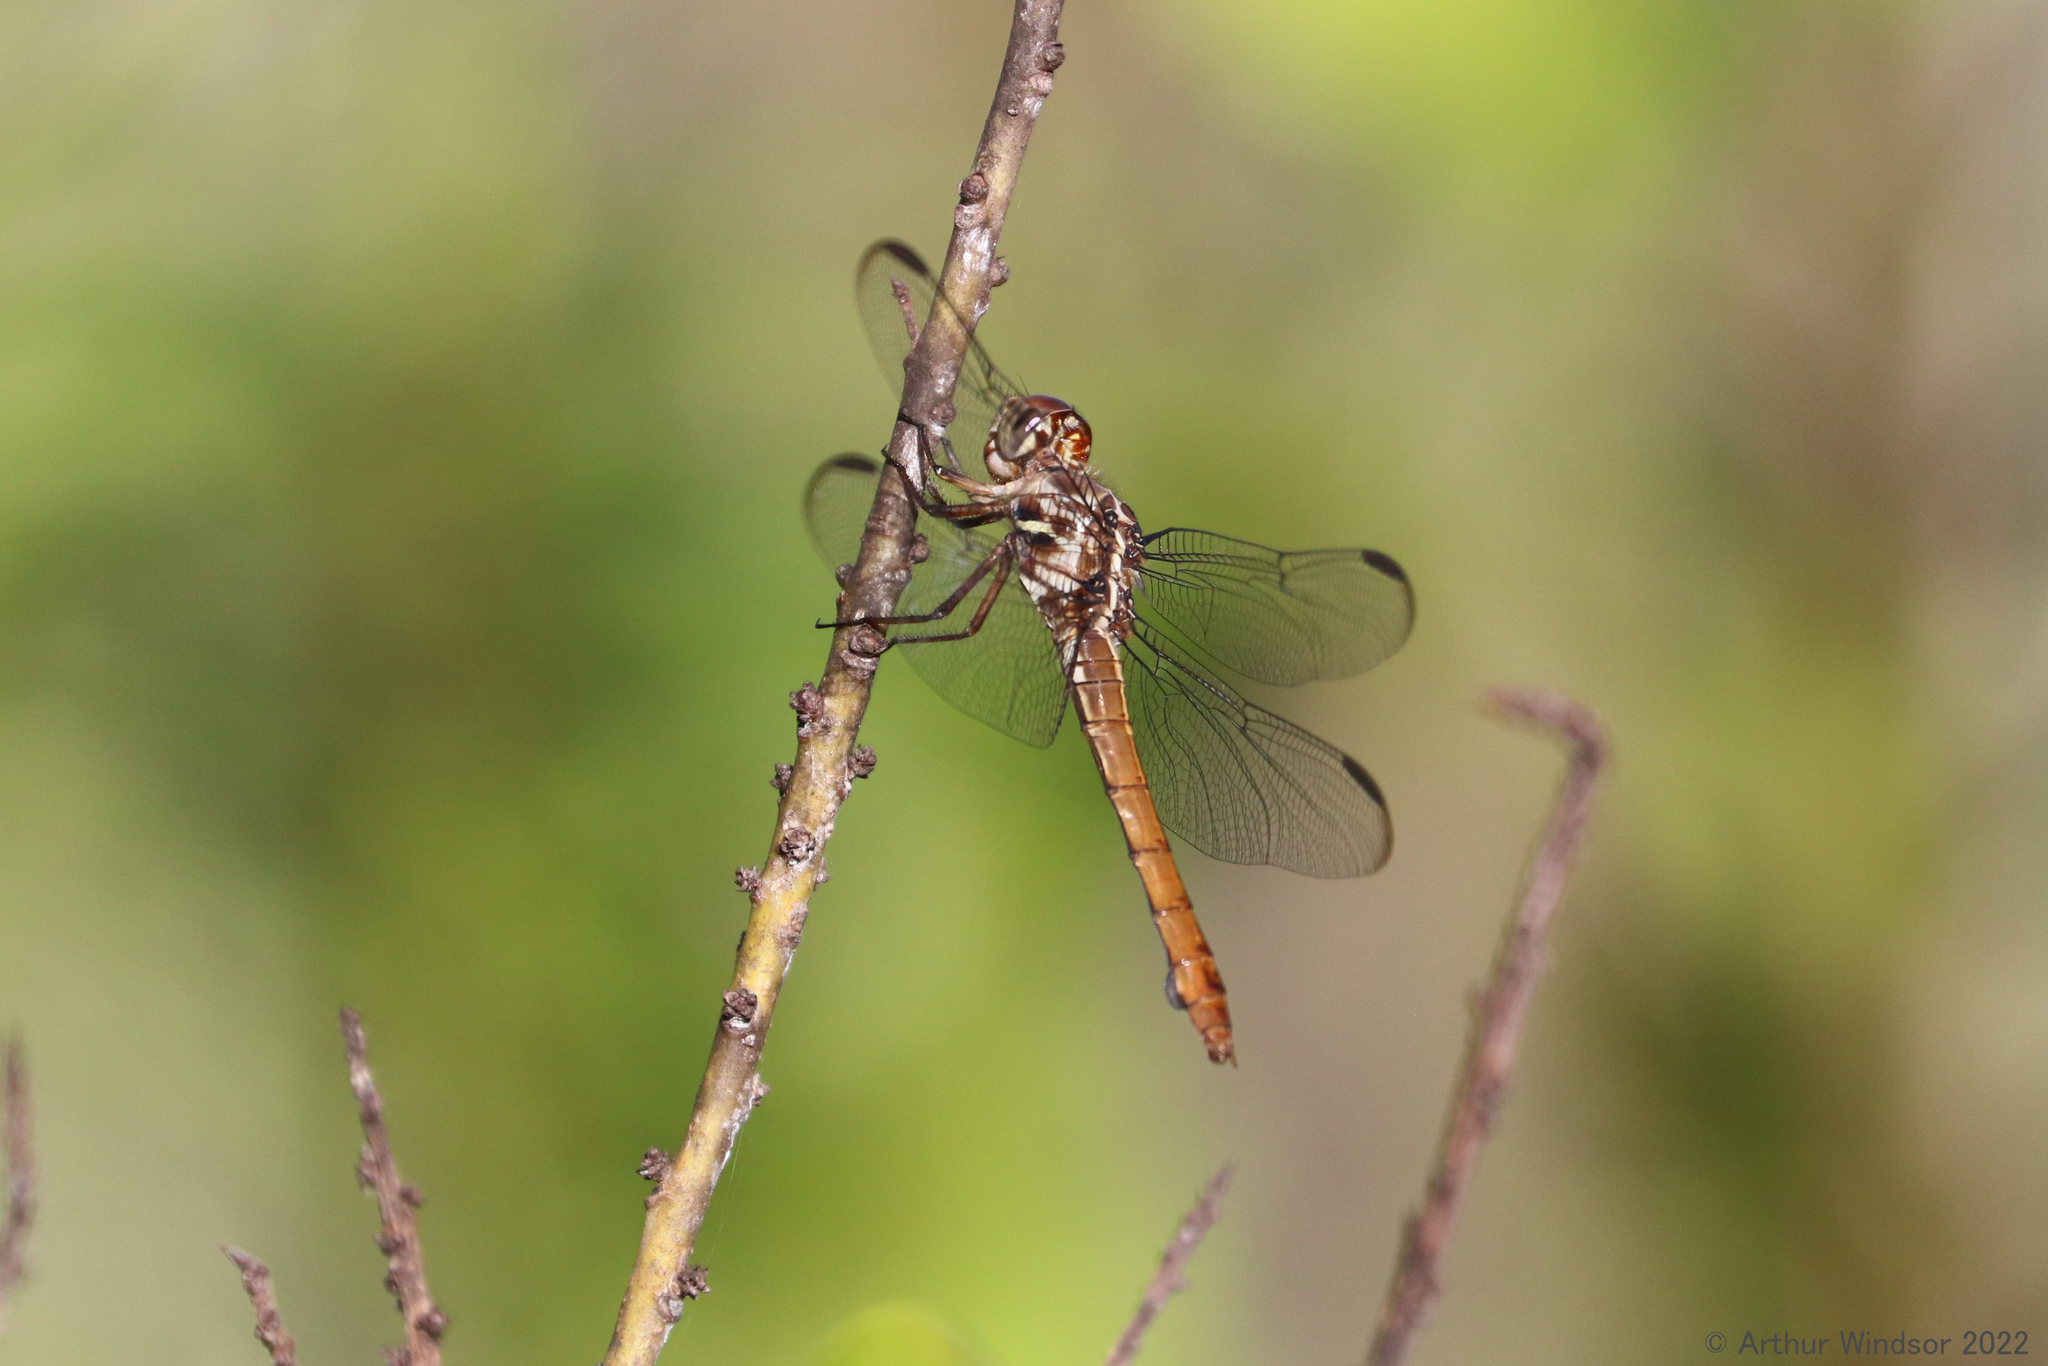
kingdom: Animalia
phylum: Arthropoda
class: Insecta
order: Odonata
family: Libellulidae
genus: Orthemis
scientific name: Orthemis ferruginea
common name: Roseate skimmer
